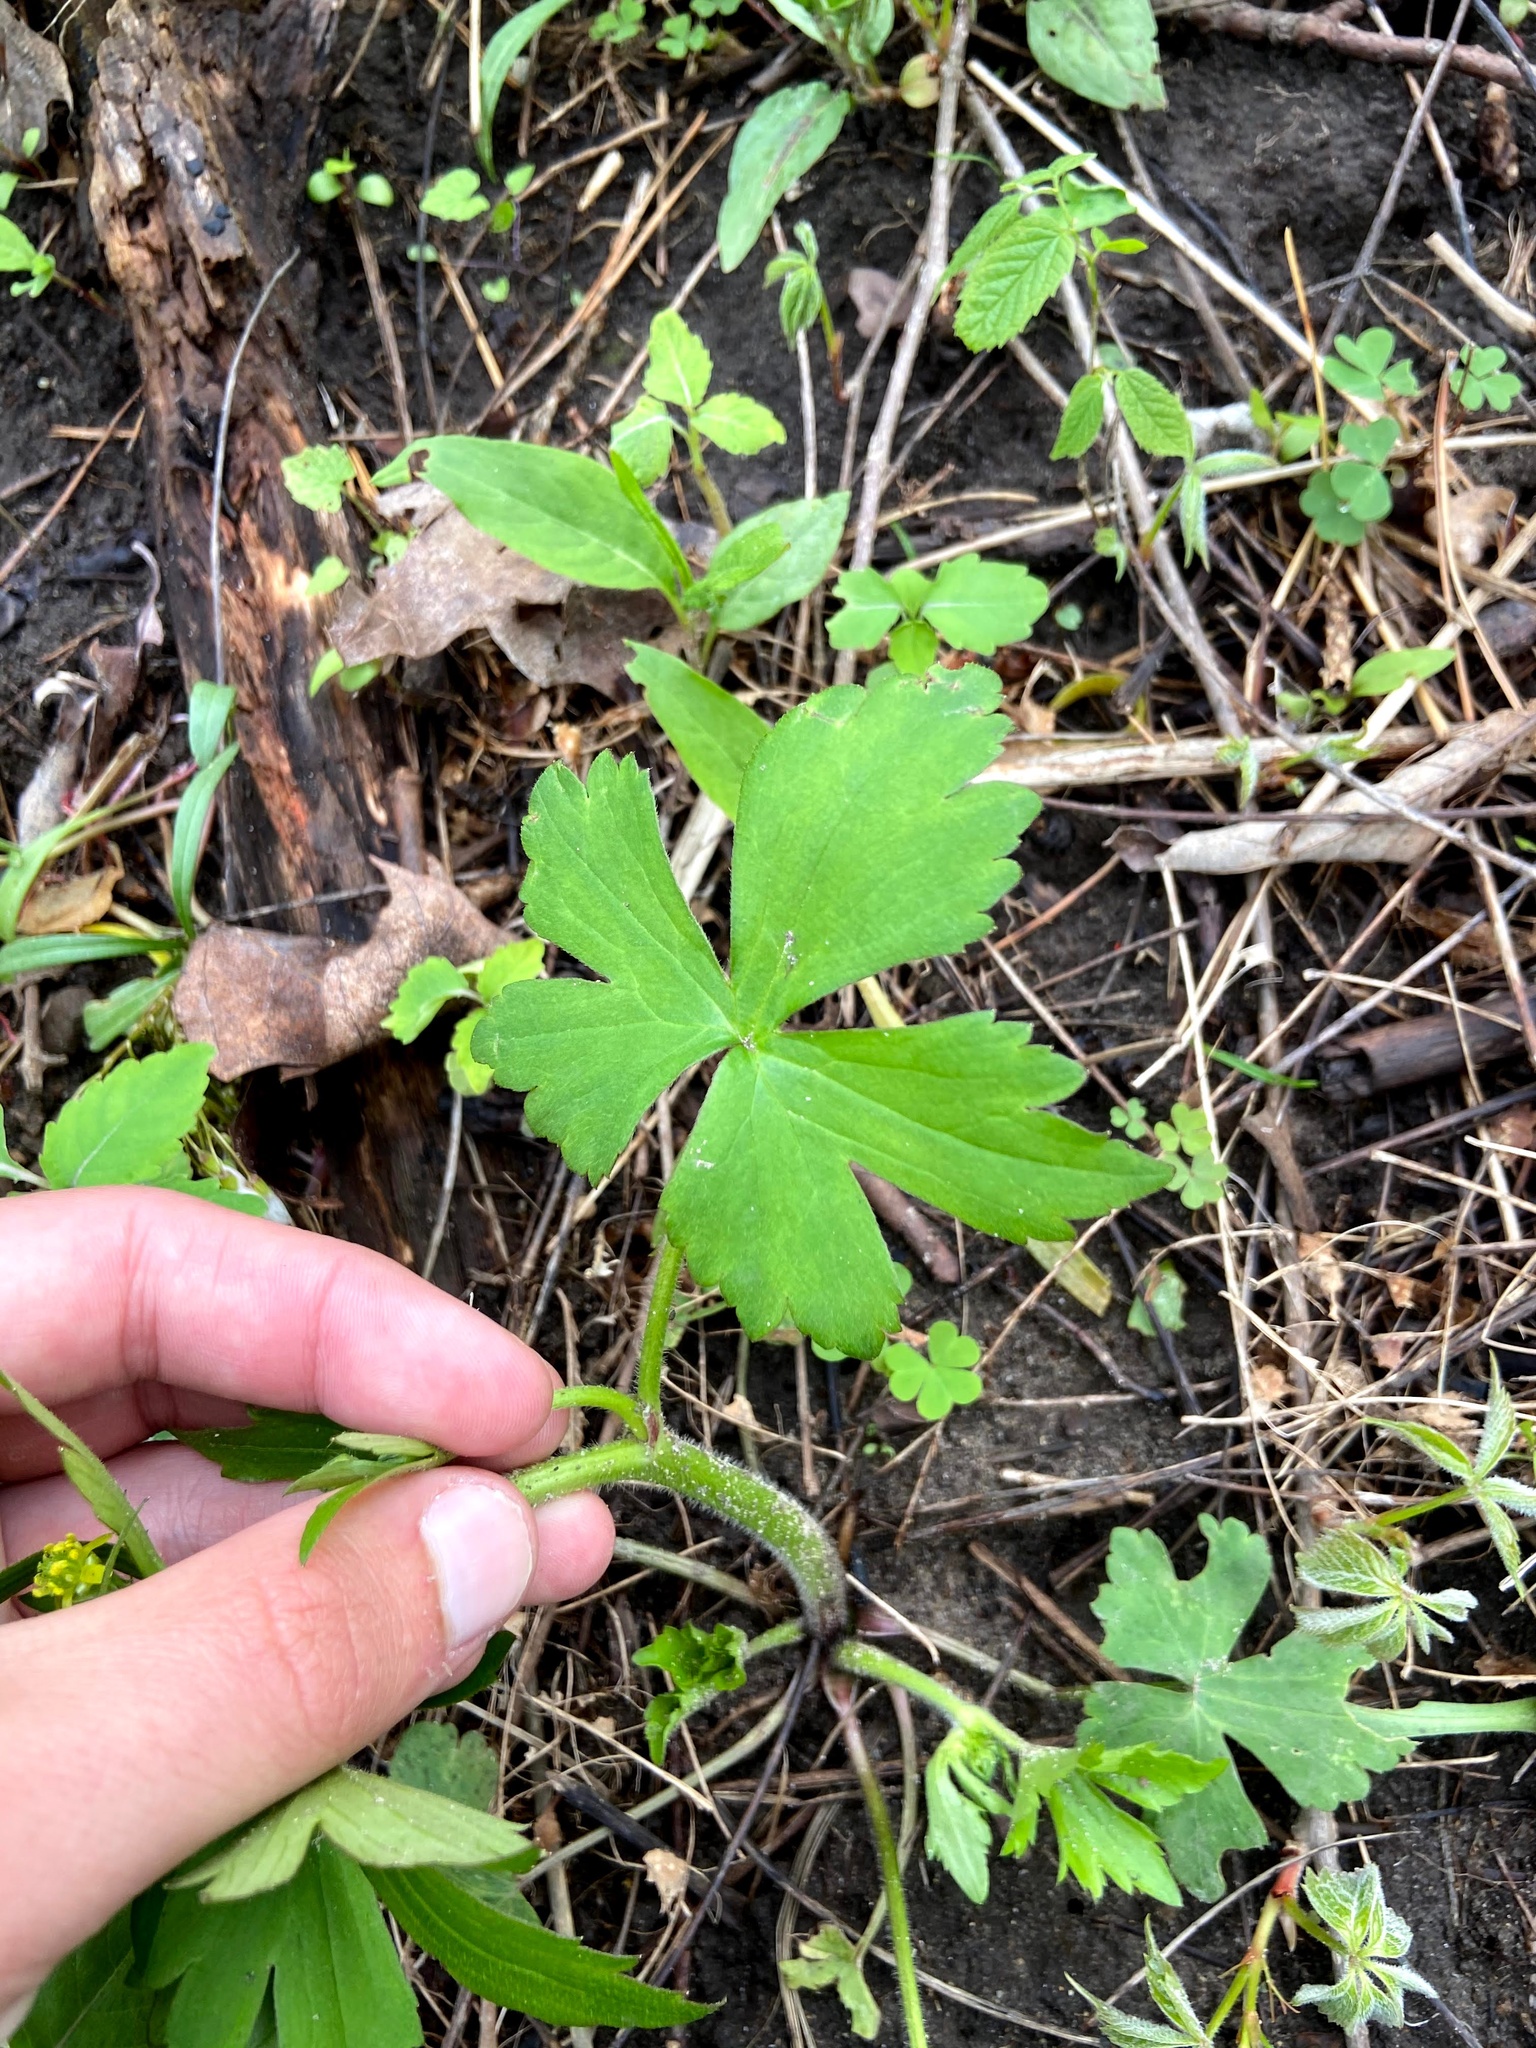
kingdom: Plantae
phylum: Tracheophyta
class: Magnoliopsida
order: Ranunculales
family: Ranunculaceae
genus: Ranunculus
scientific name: Ranunculus recurvatus
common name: Blisterwort
